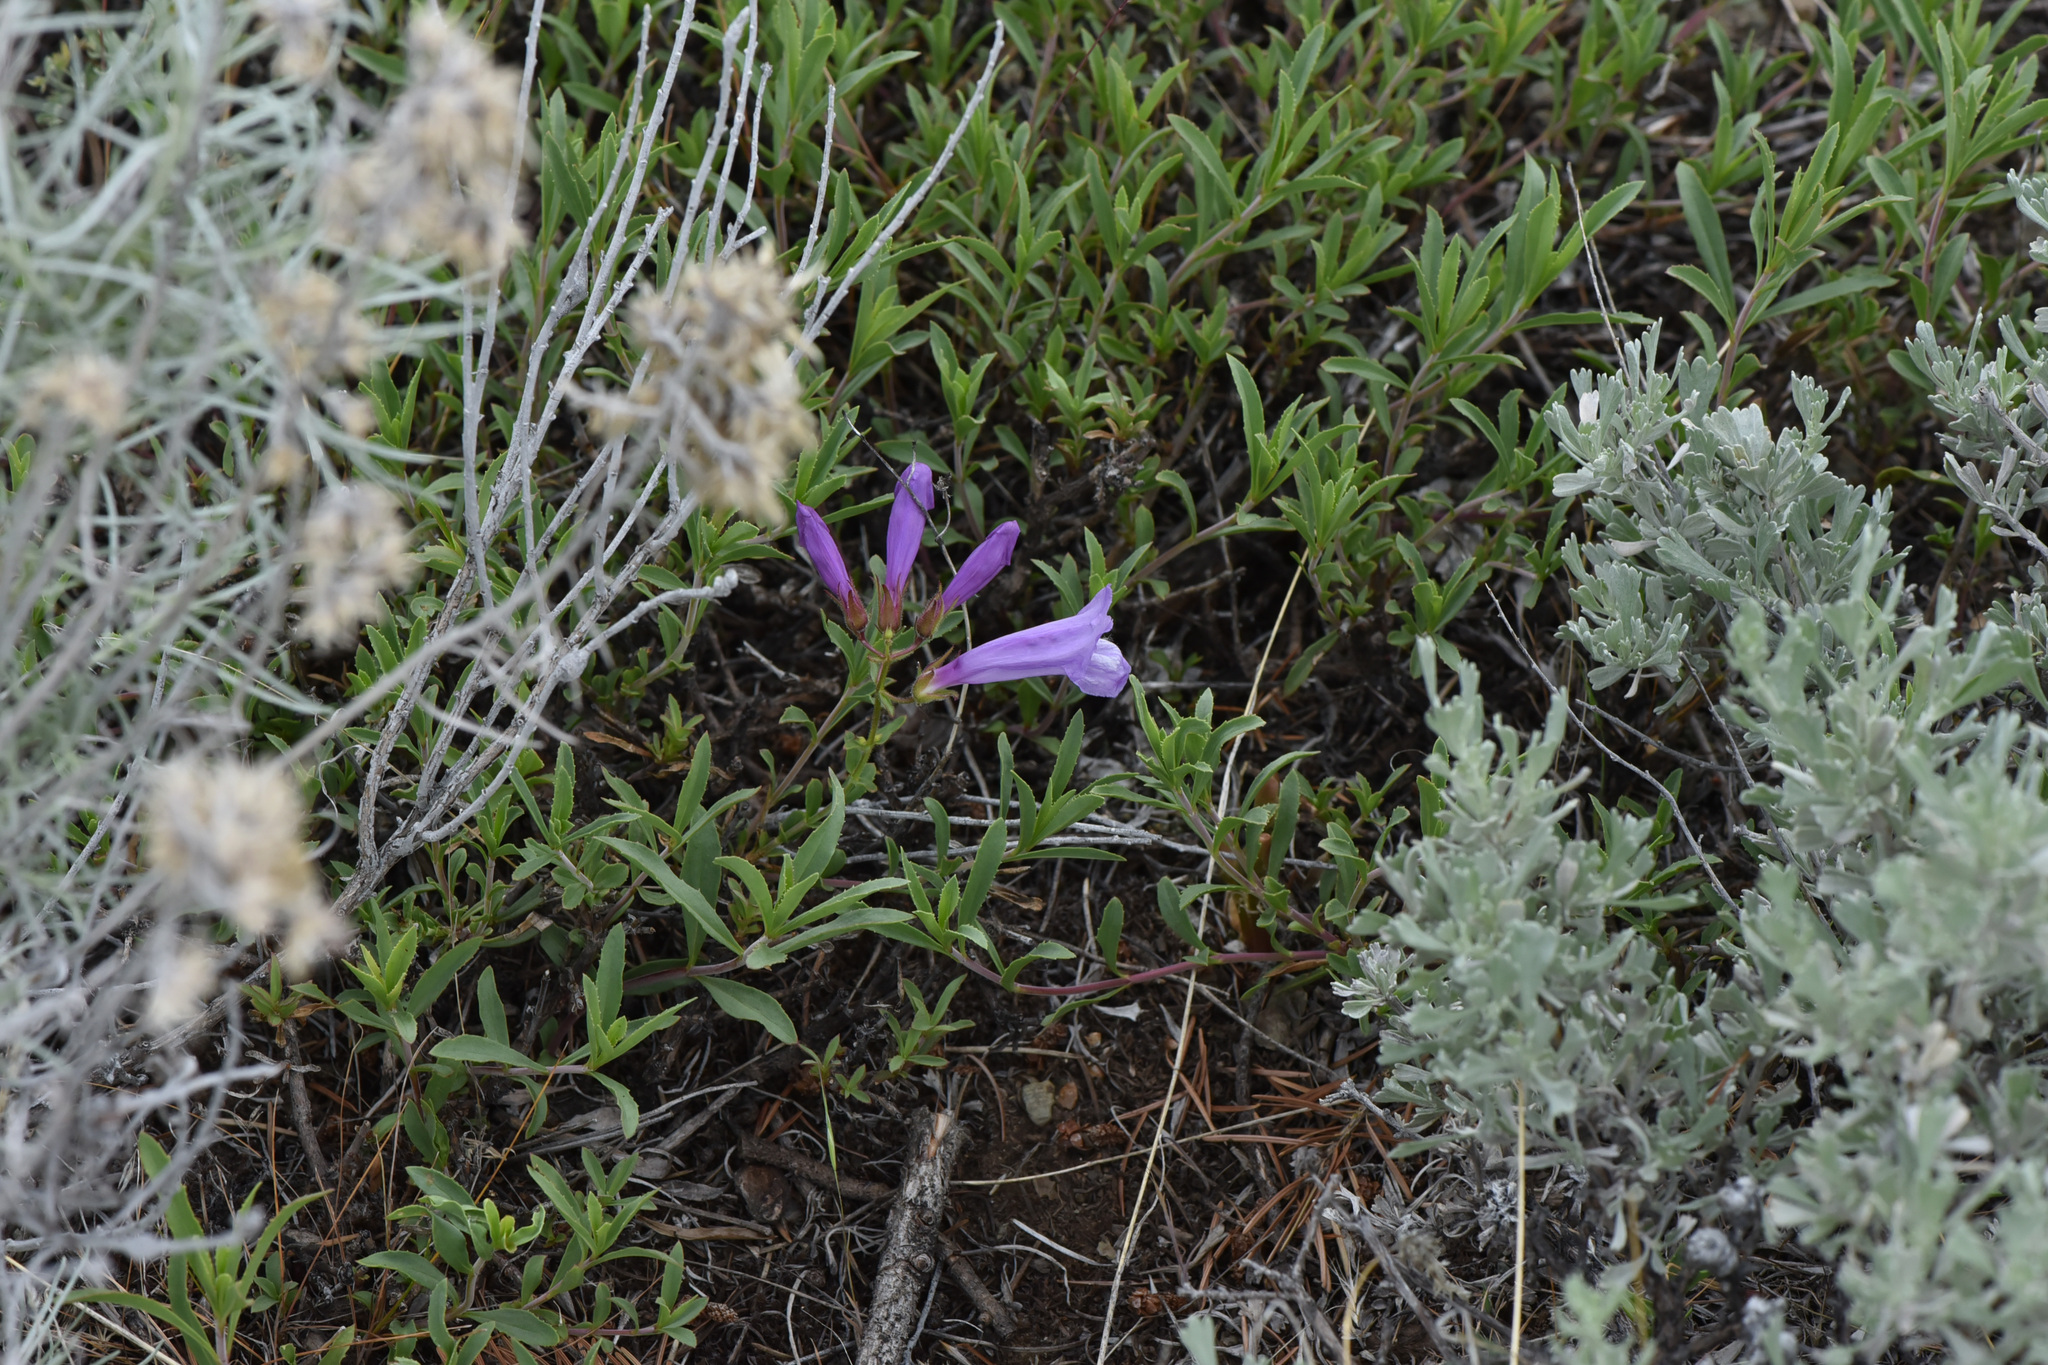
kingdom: Plantae
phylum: Tracheophyta
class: Magnoliopsida
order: Lamiales
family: Plantaginaceae
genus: Penstemon
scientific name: Penstemon fruticosus
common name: Bush penstemon
